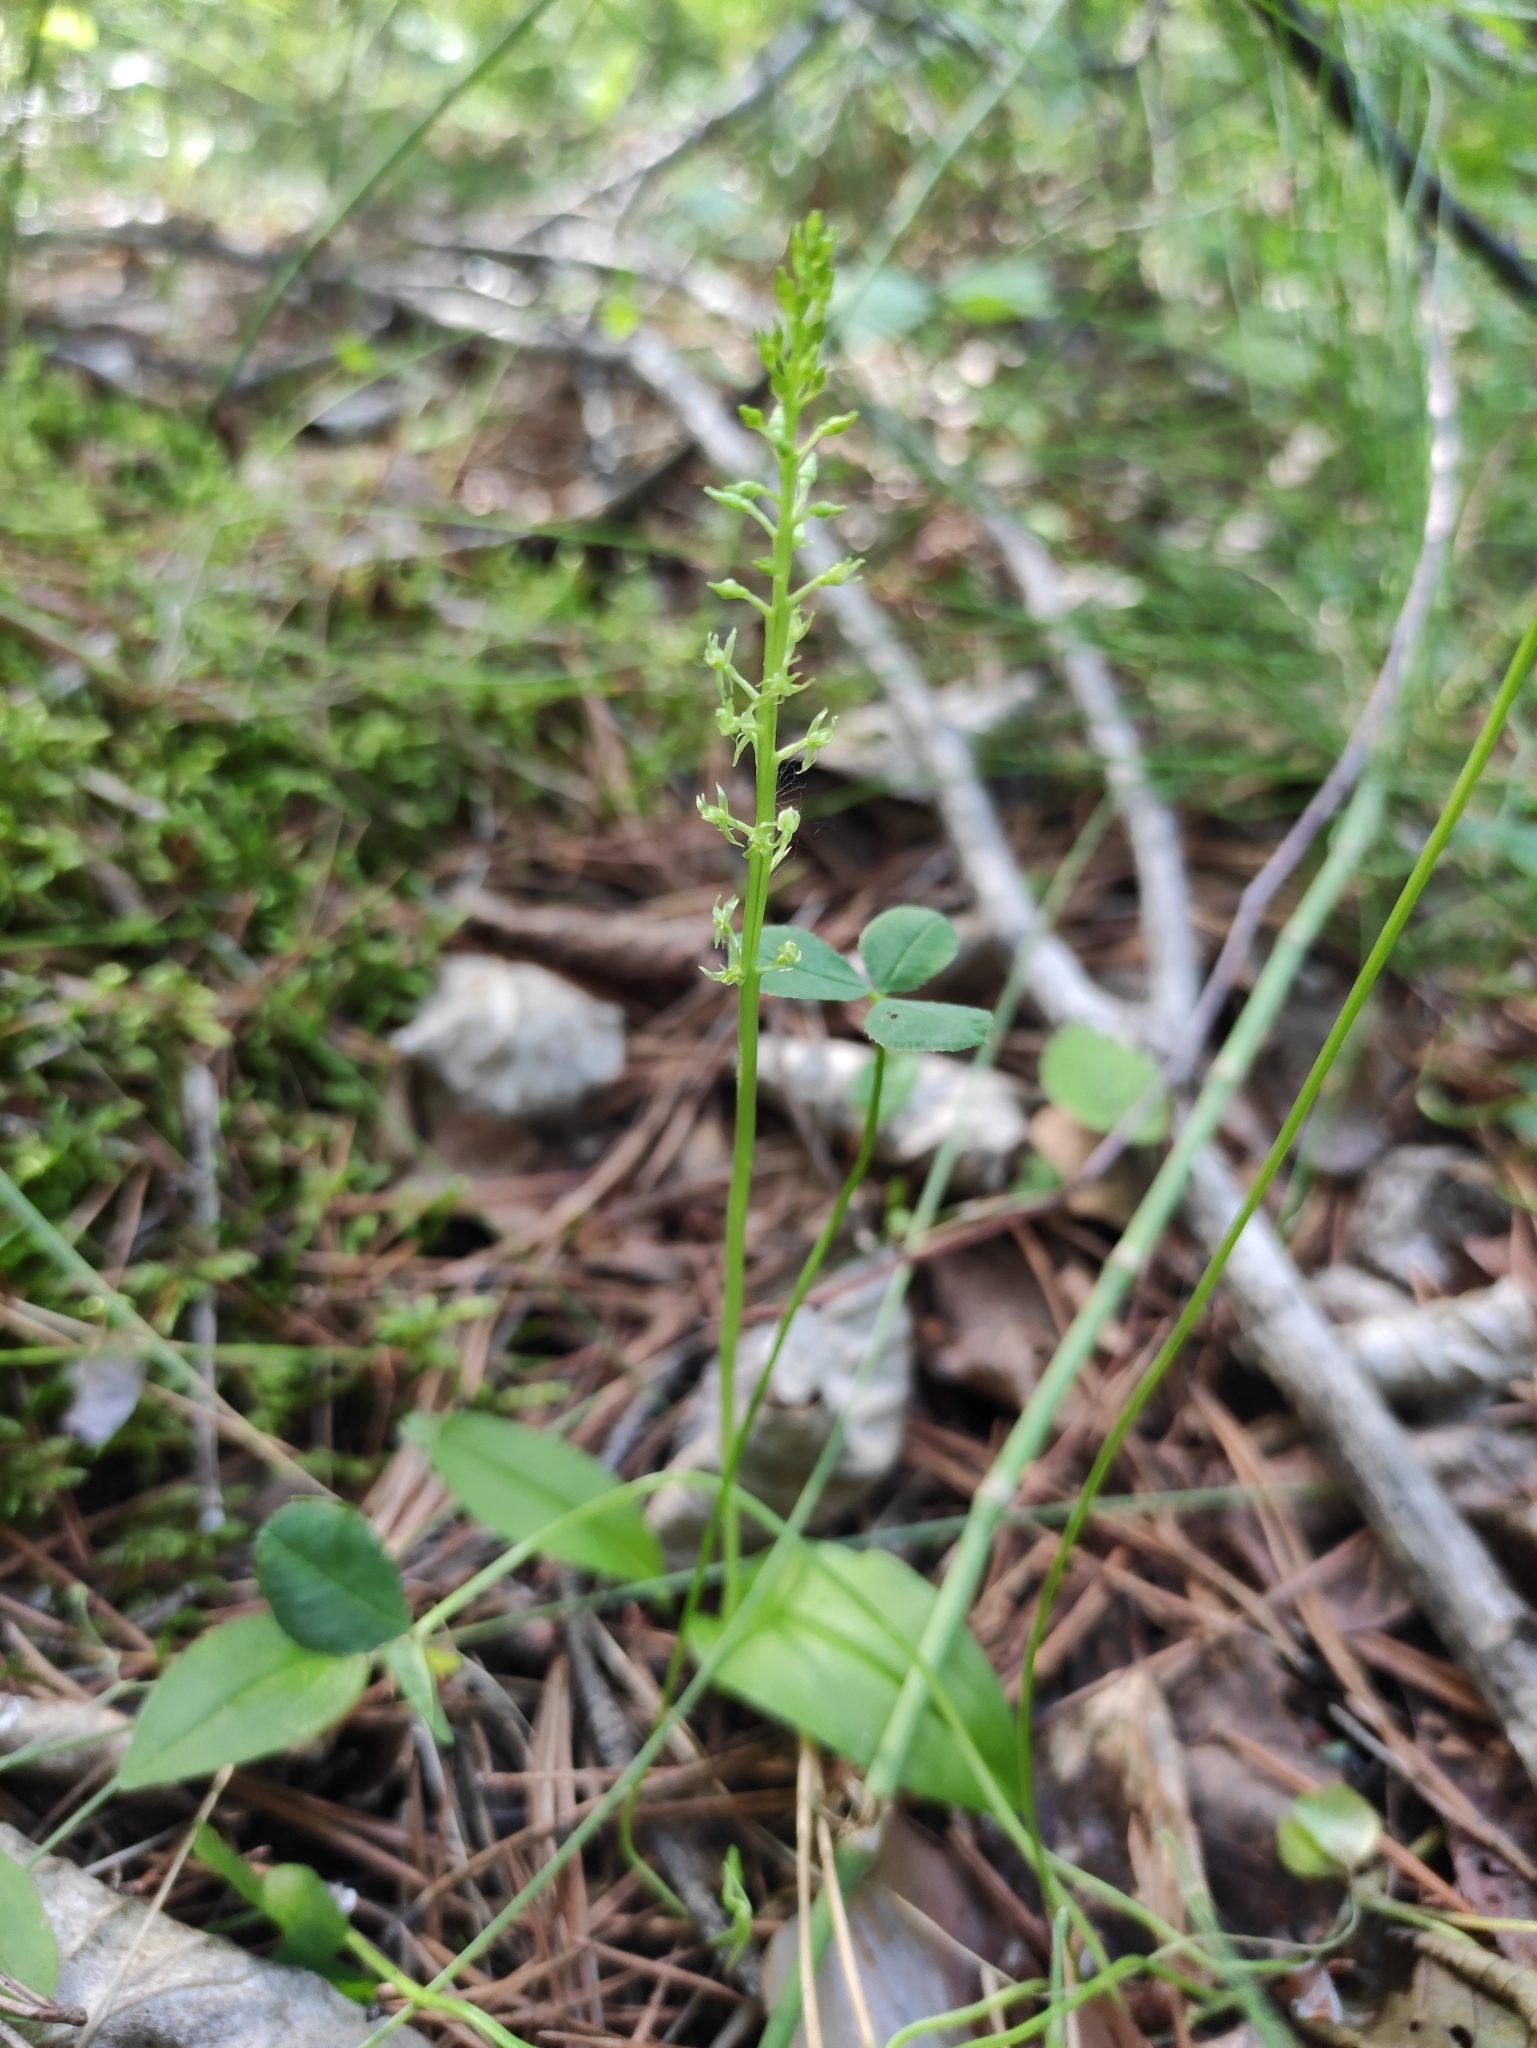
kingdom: Plantae
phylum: Tracheophyta
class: Liliopsida
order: Asparagales
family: Orchidaceae
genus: Malaxis
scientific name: Malaxis monophyllos
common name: White adder's-mouth
